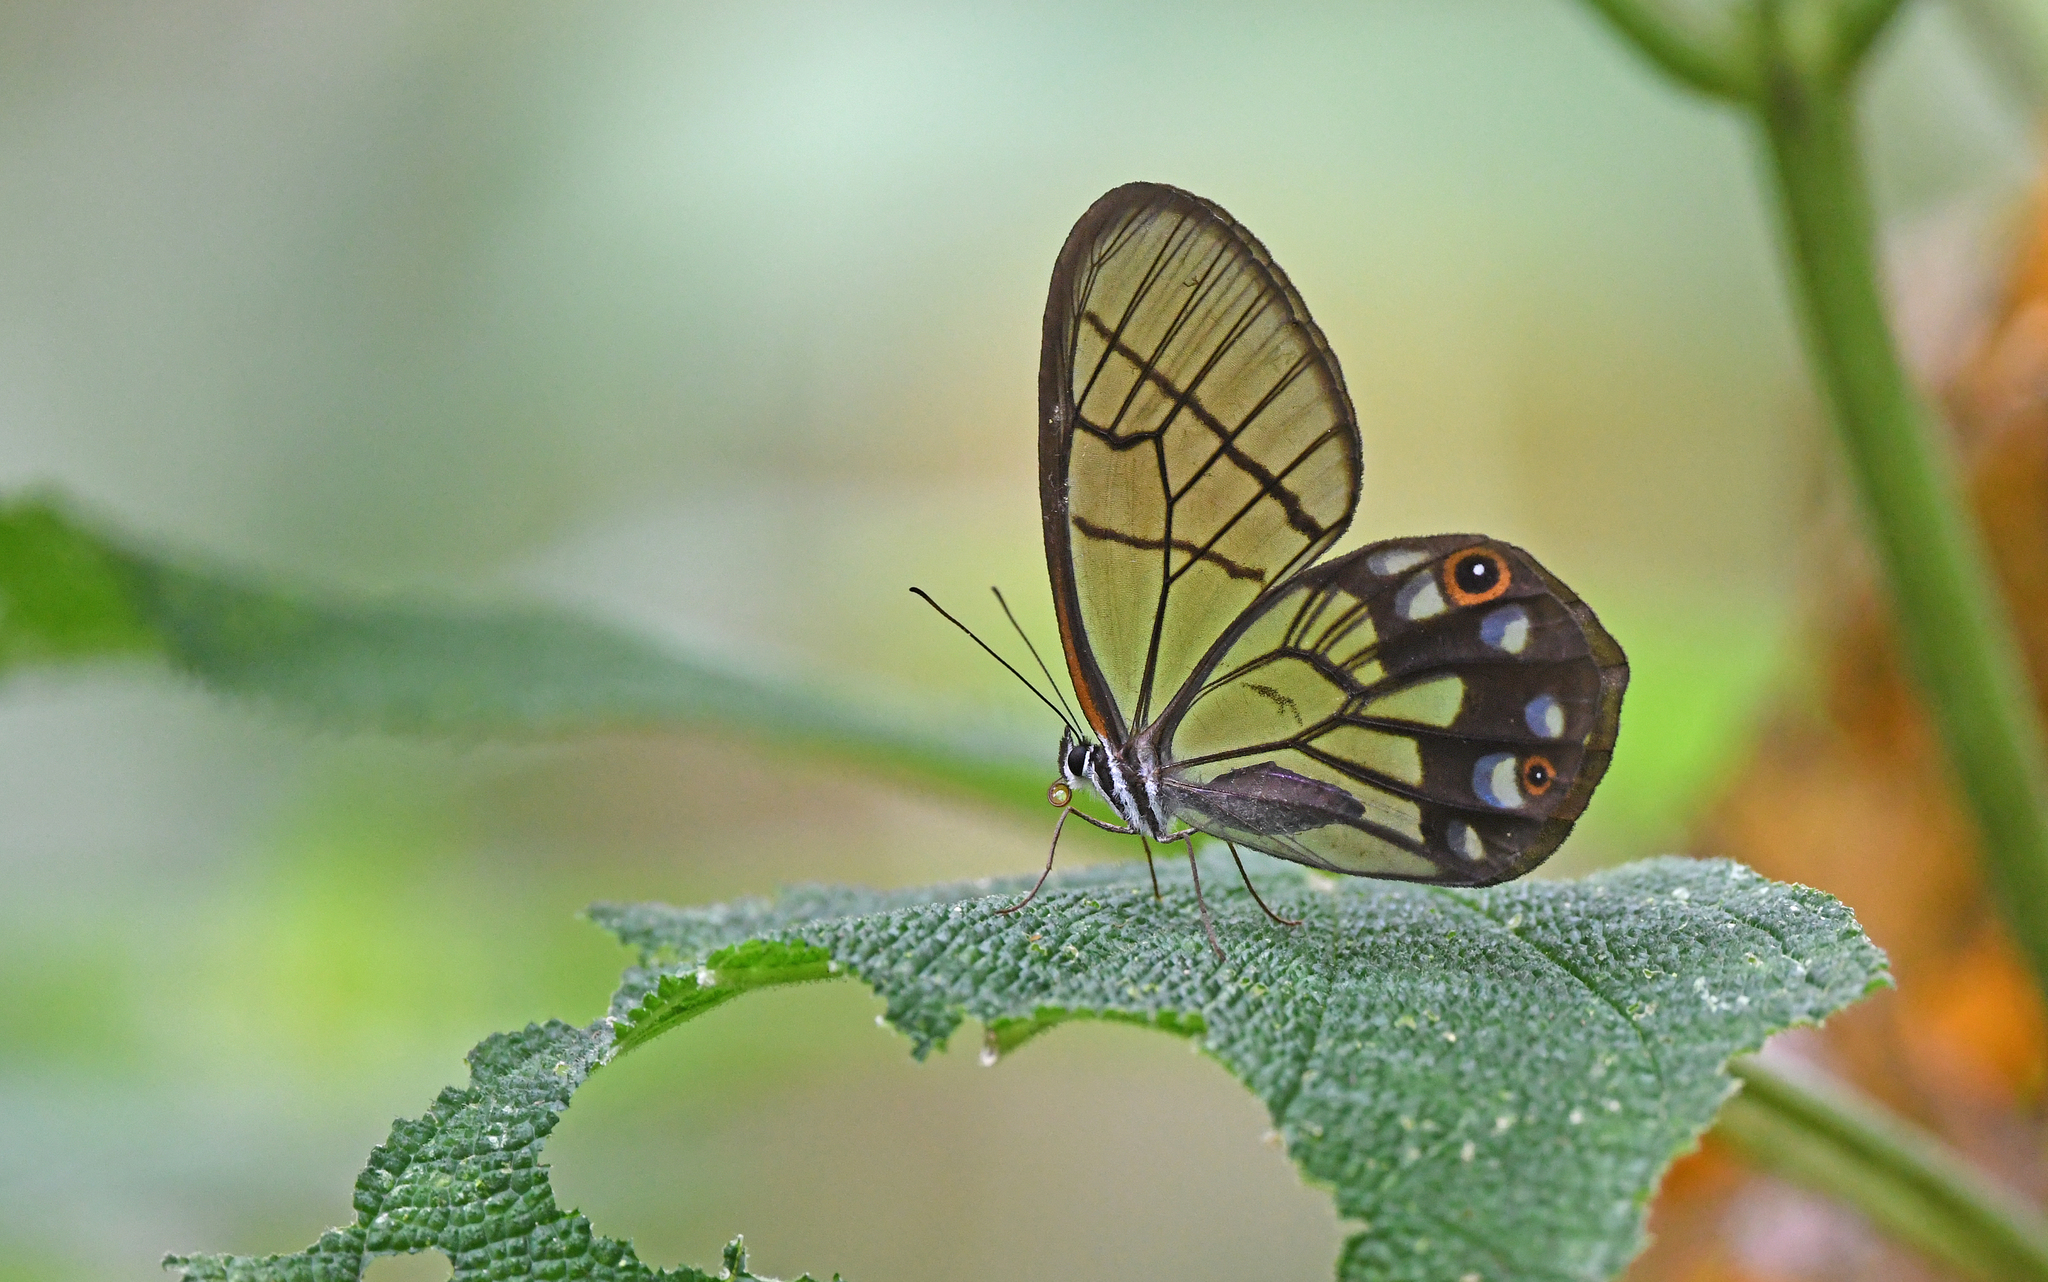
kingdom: Animalia
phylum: Arthropoda
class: Insecta
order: Lepidoptera
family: Nymphalidae
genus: Pseudohaetera
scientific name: Pseudohaetera
